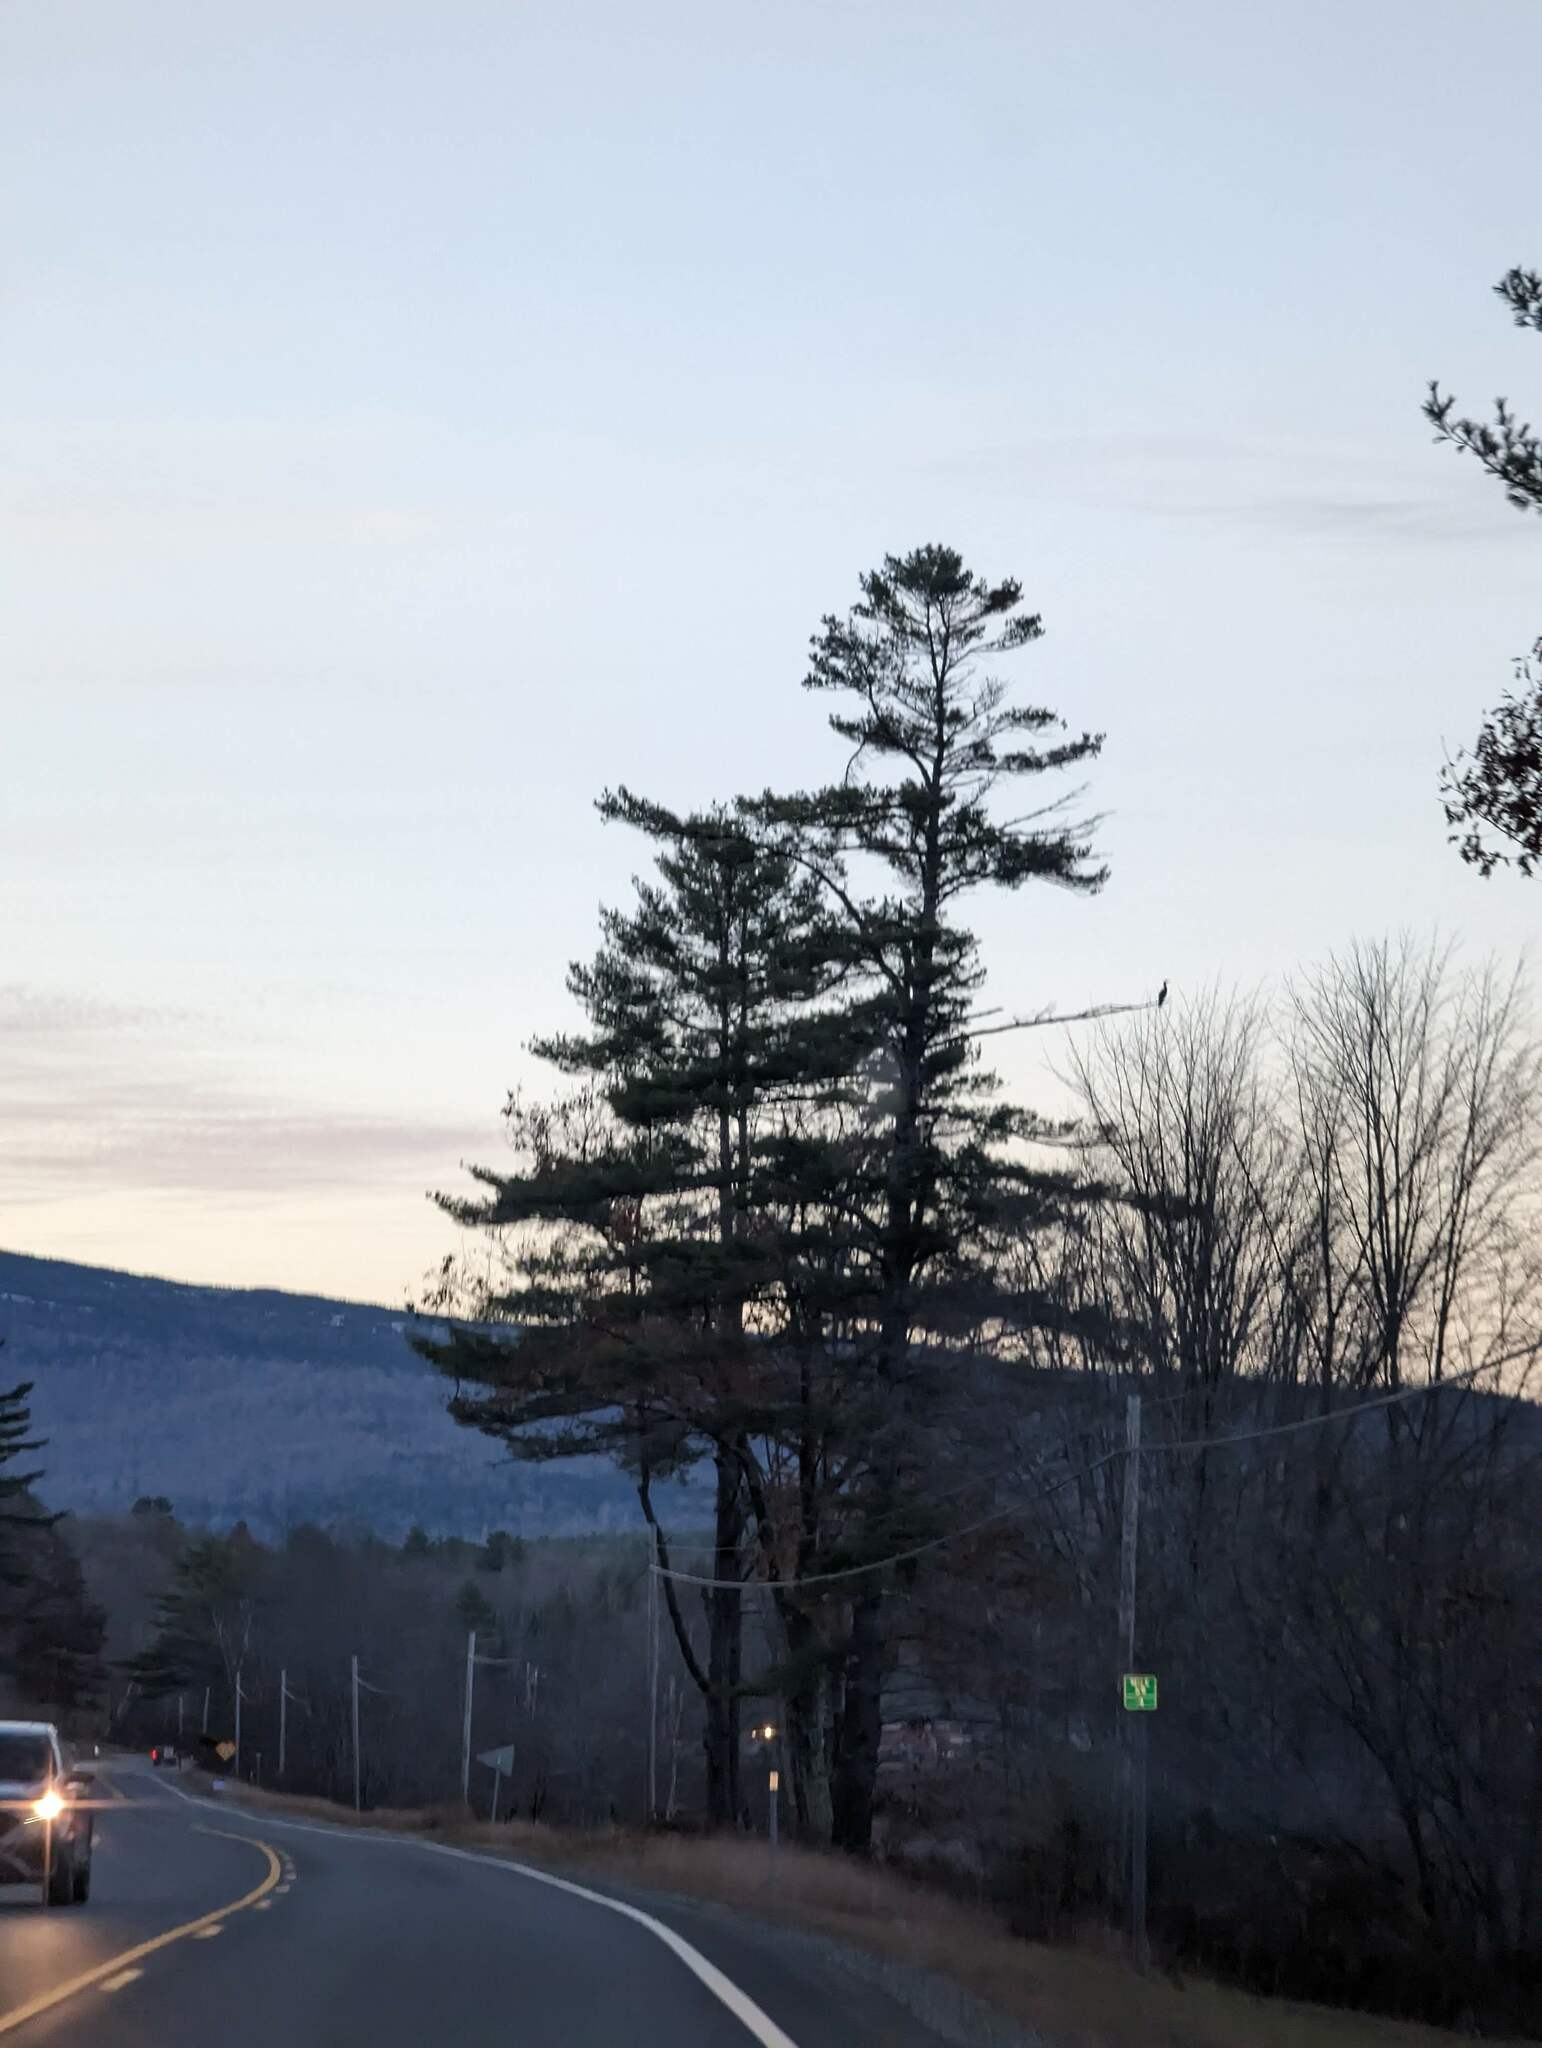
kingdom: Plantae
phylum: Tracheophyta
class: Pinopsida
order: Pinales
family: Pinaceae
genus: Pinus
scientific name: Pinus strobus
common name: Weymouth pine
